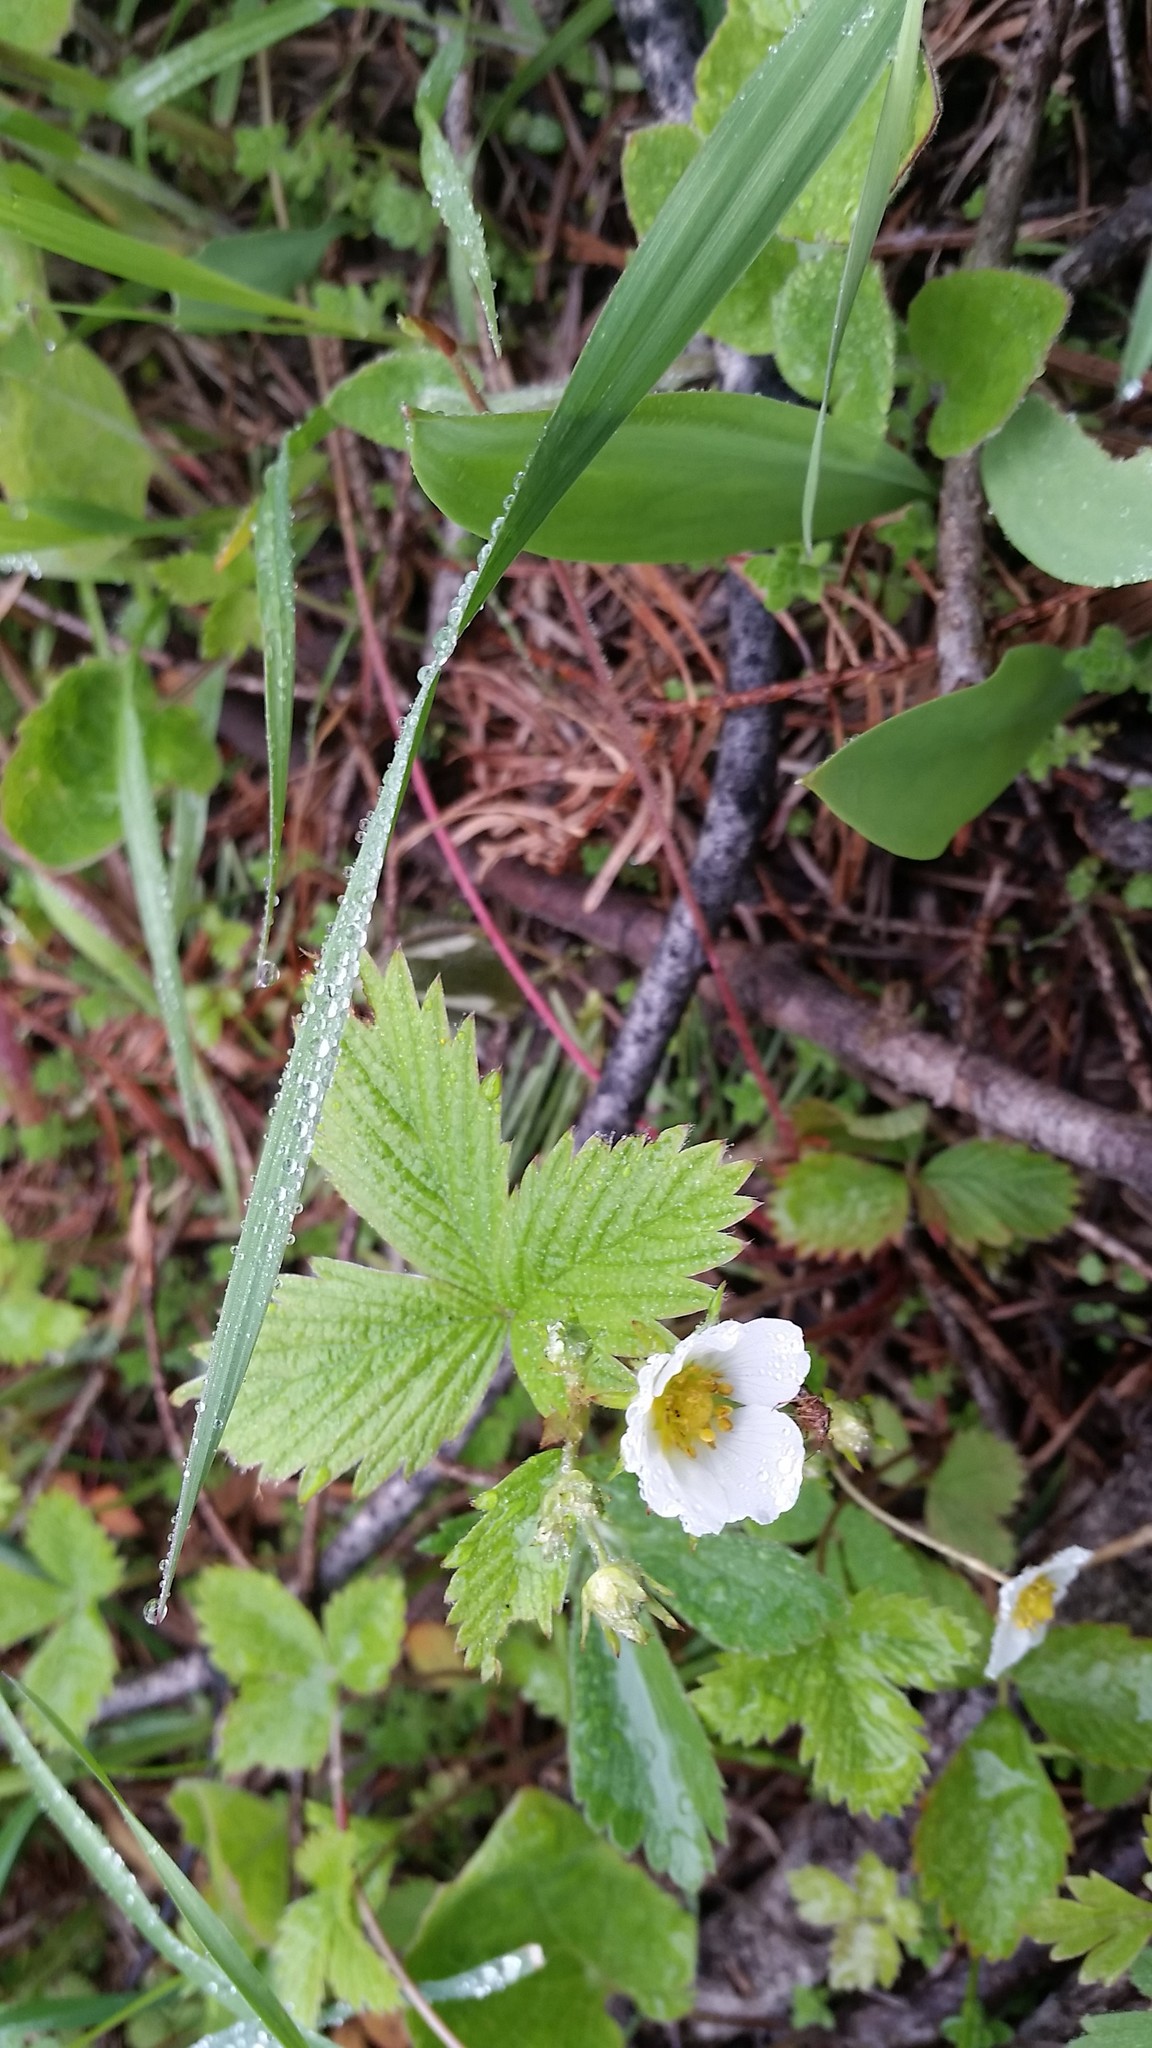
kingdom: Plantae
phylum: Tracheophyta
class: Magnoliopsida
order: Rosales
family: Rosaceae
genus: Fragaria
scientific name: Fragaria vesca
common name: Wild strawberry
